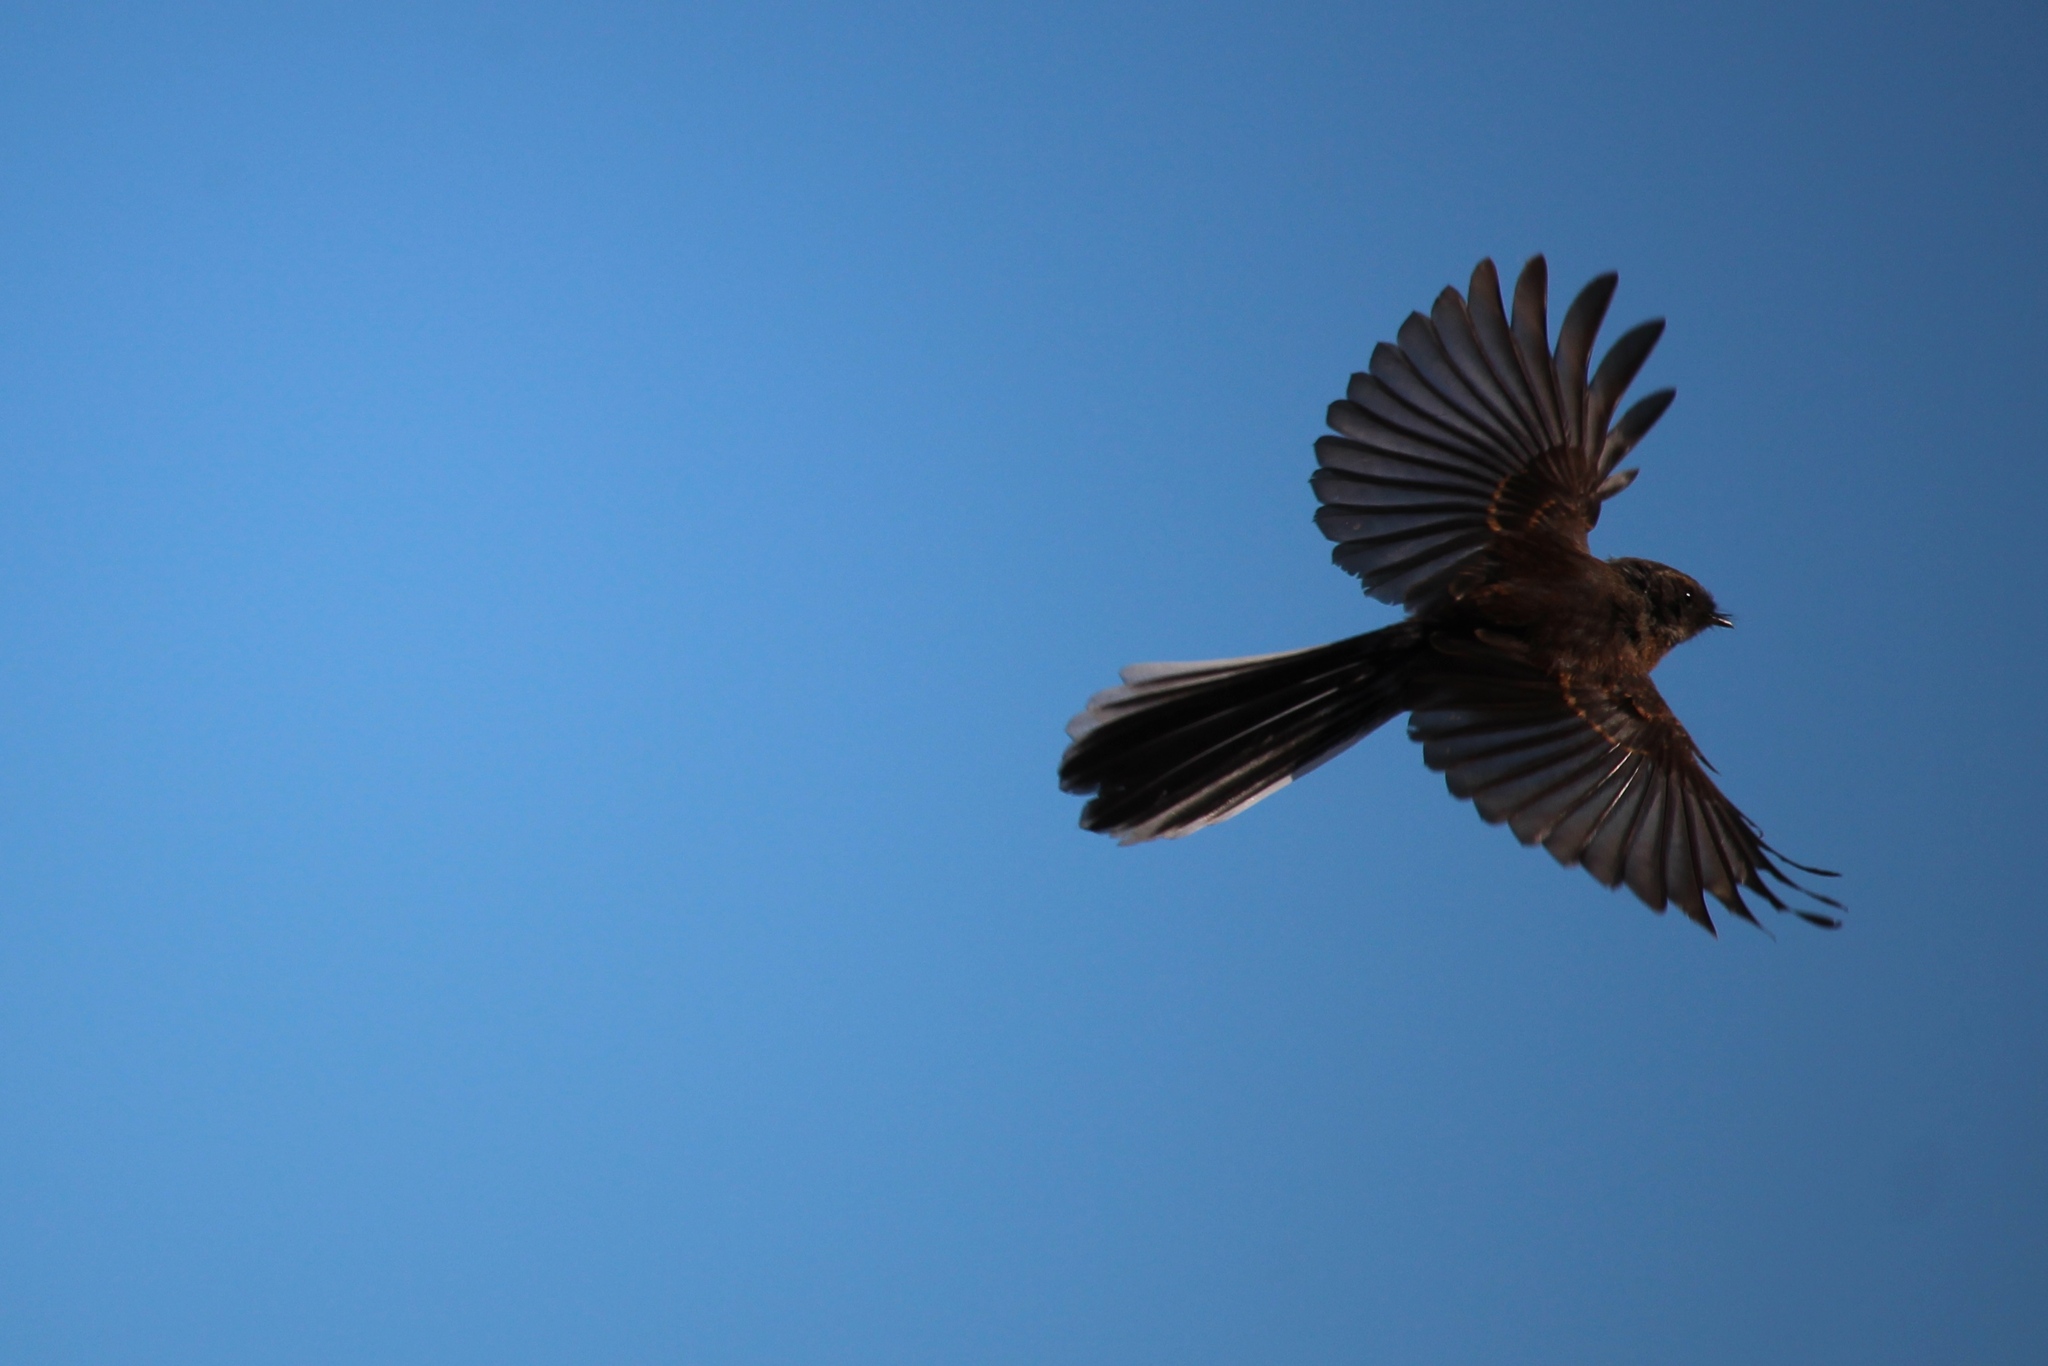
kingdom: Animalia
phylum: Chordata
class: Aves
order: Passeriformes
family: Rhipiduridae
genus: Rhipidura
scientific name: Rhipidura fuliginosa
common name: New zealand fantail
